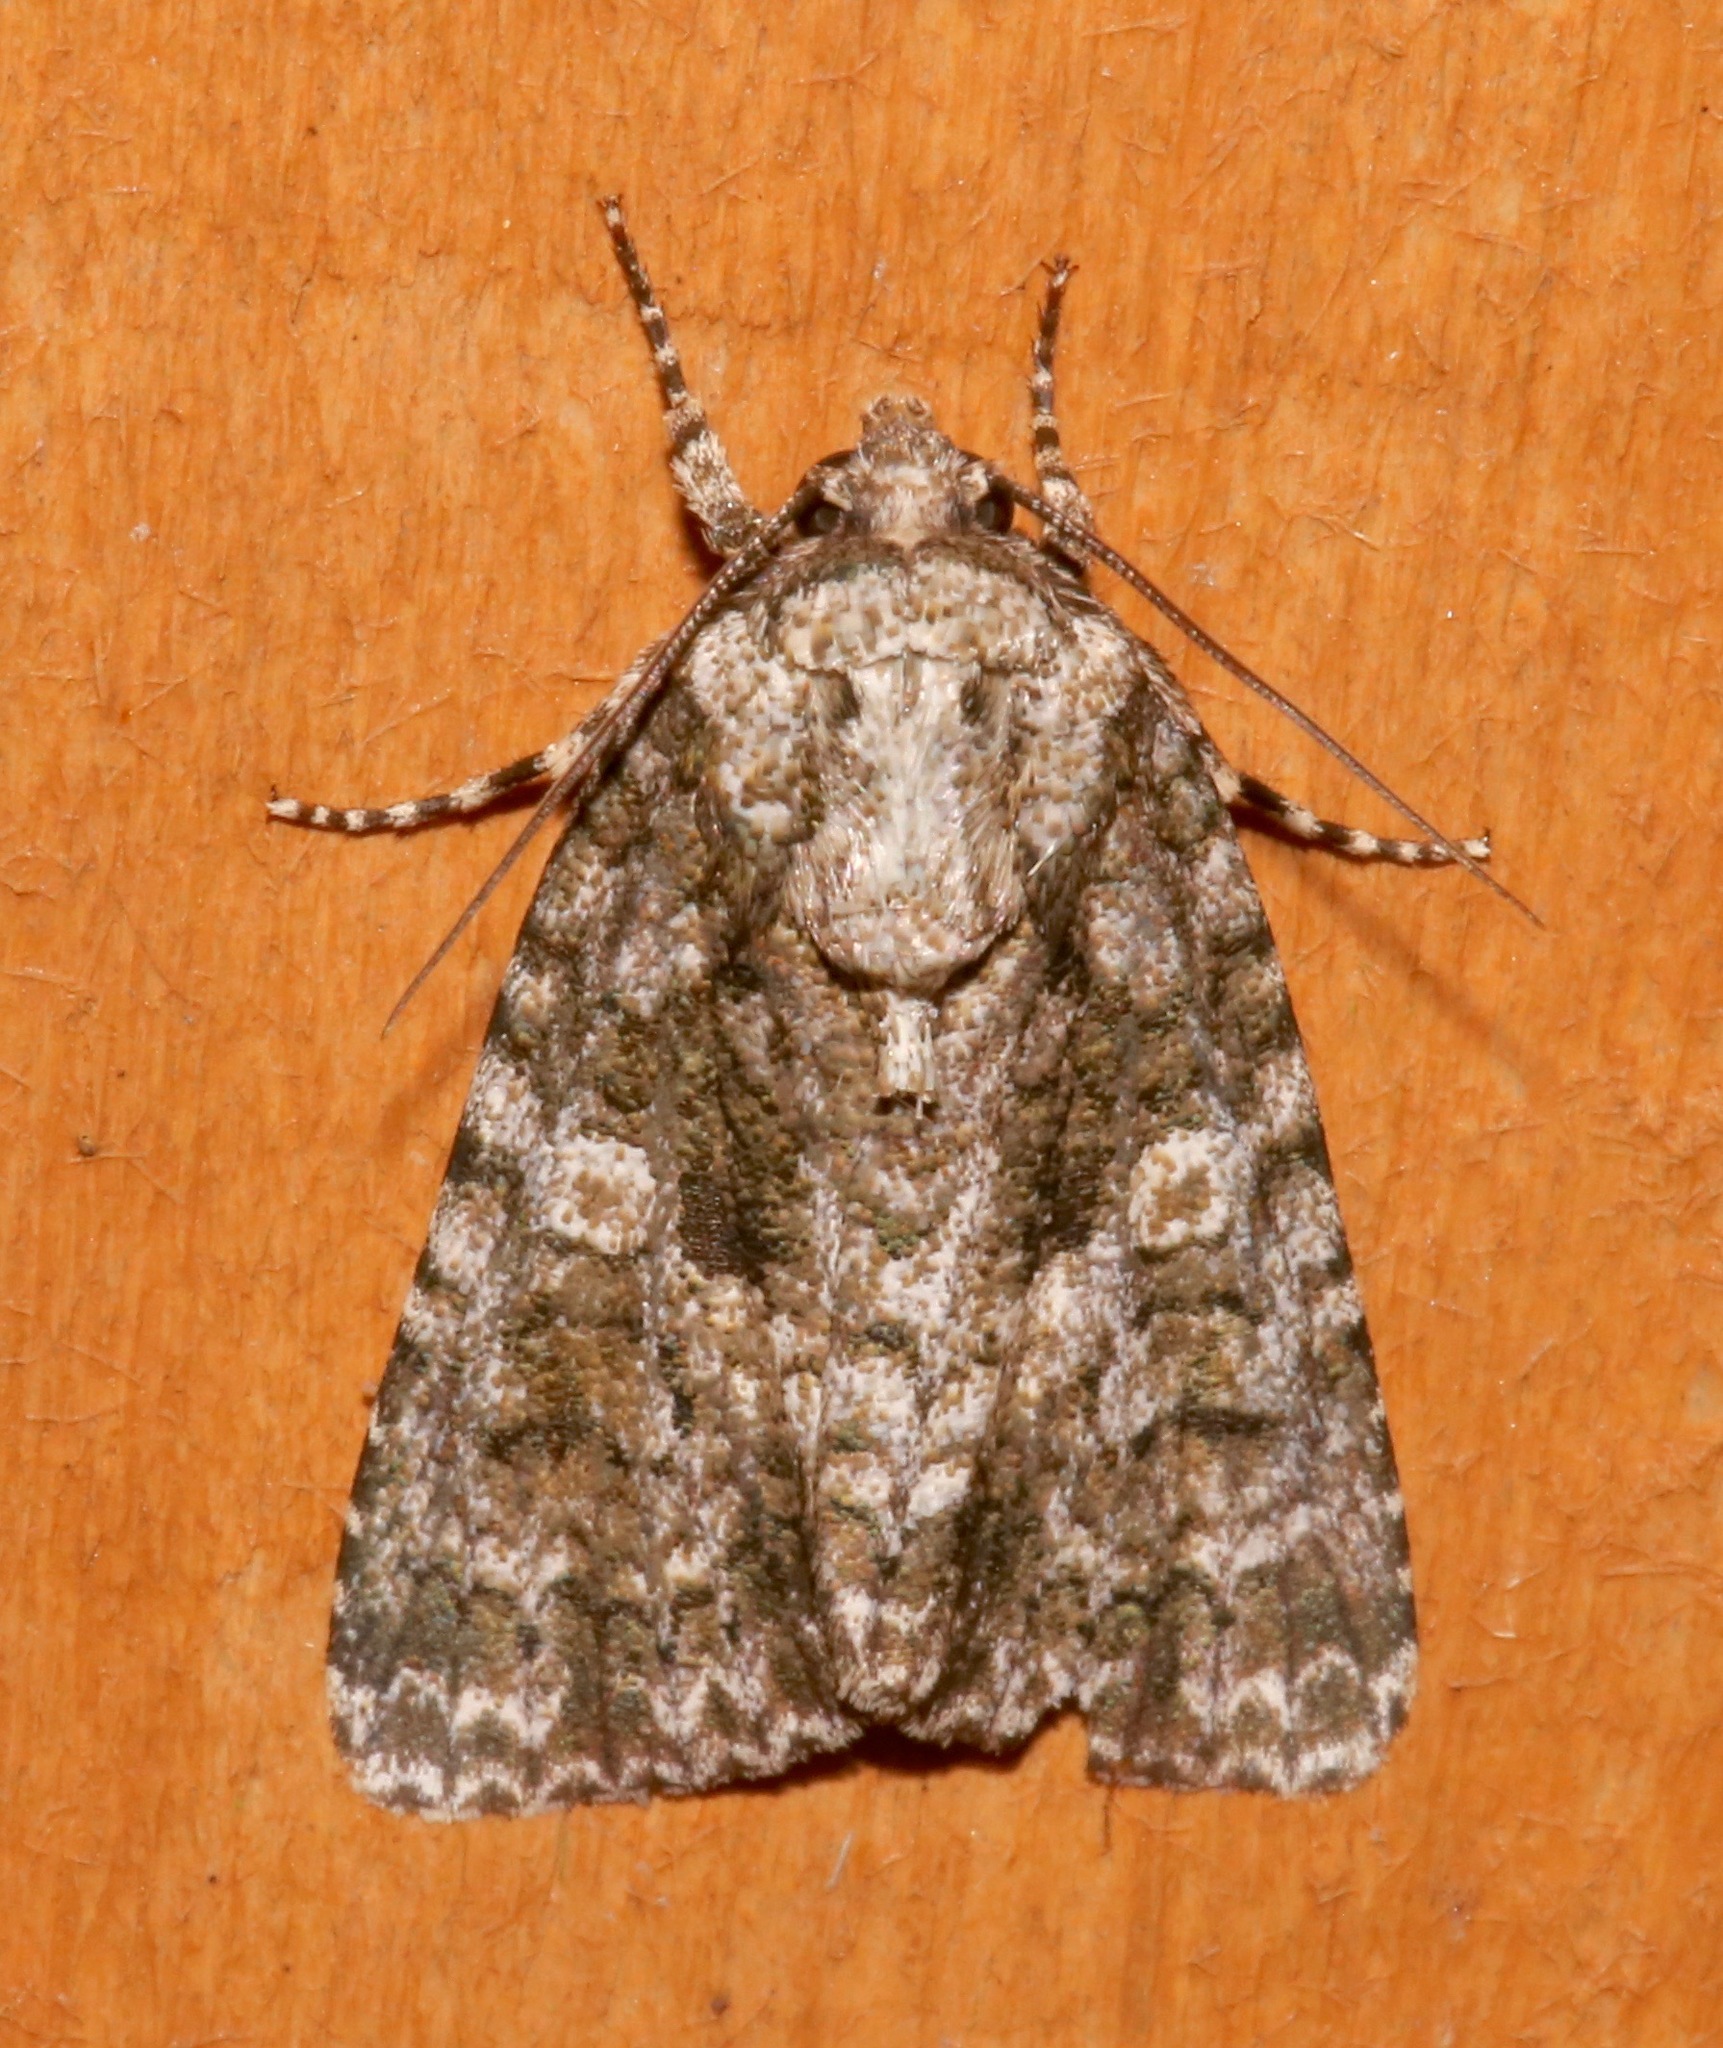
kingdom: Animalia
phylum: Arthropoda
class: Insecta
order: Lepidoptera
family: Noctuidae
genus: Acronicta
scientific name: Acronicta afflicta
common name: Afflicted dagger moth
